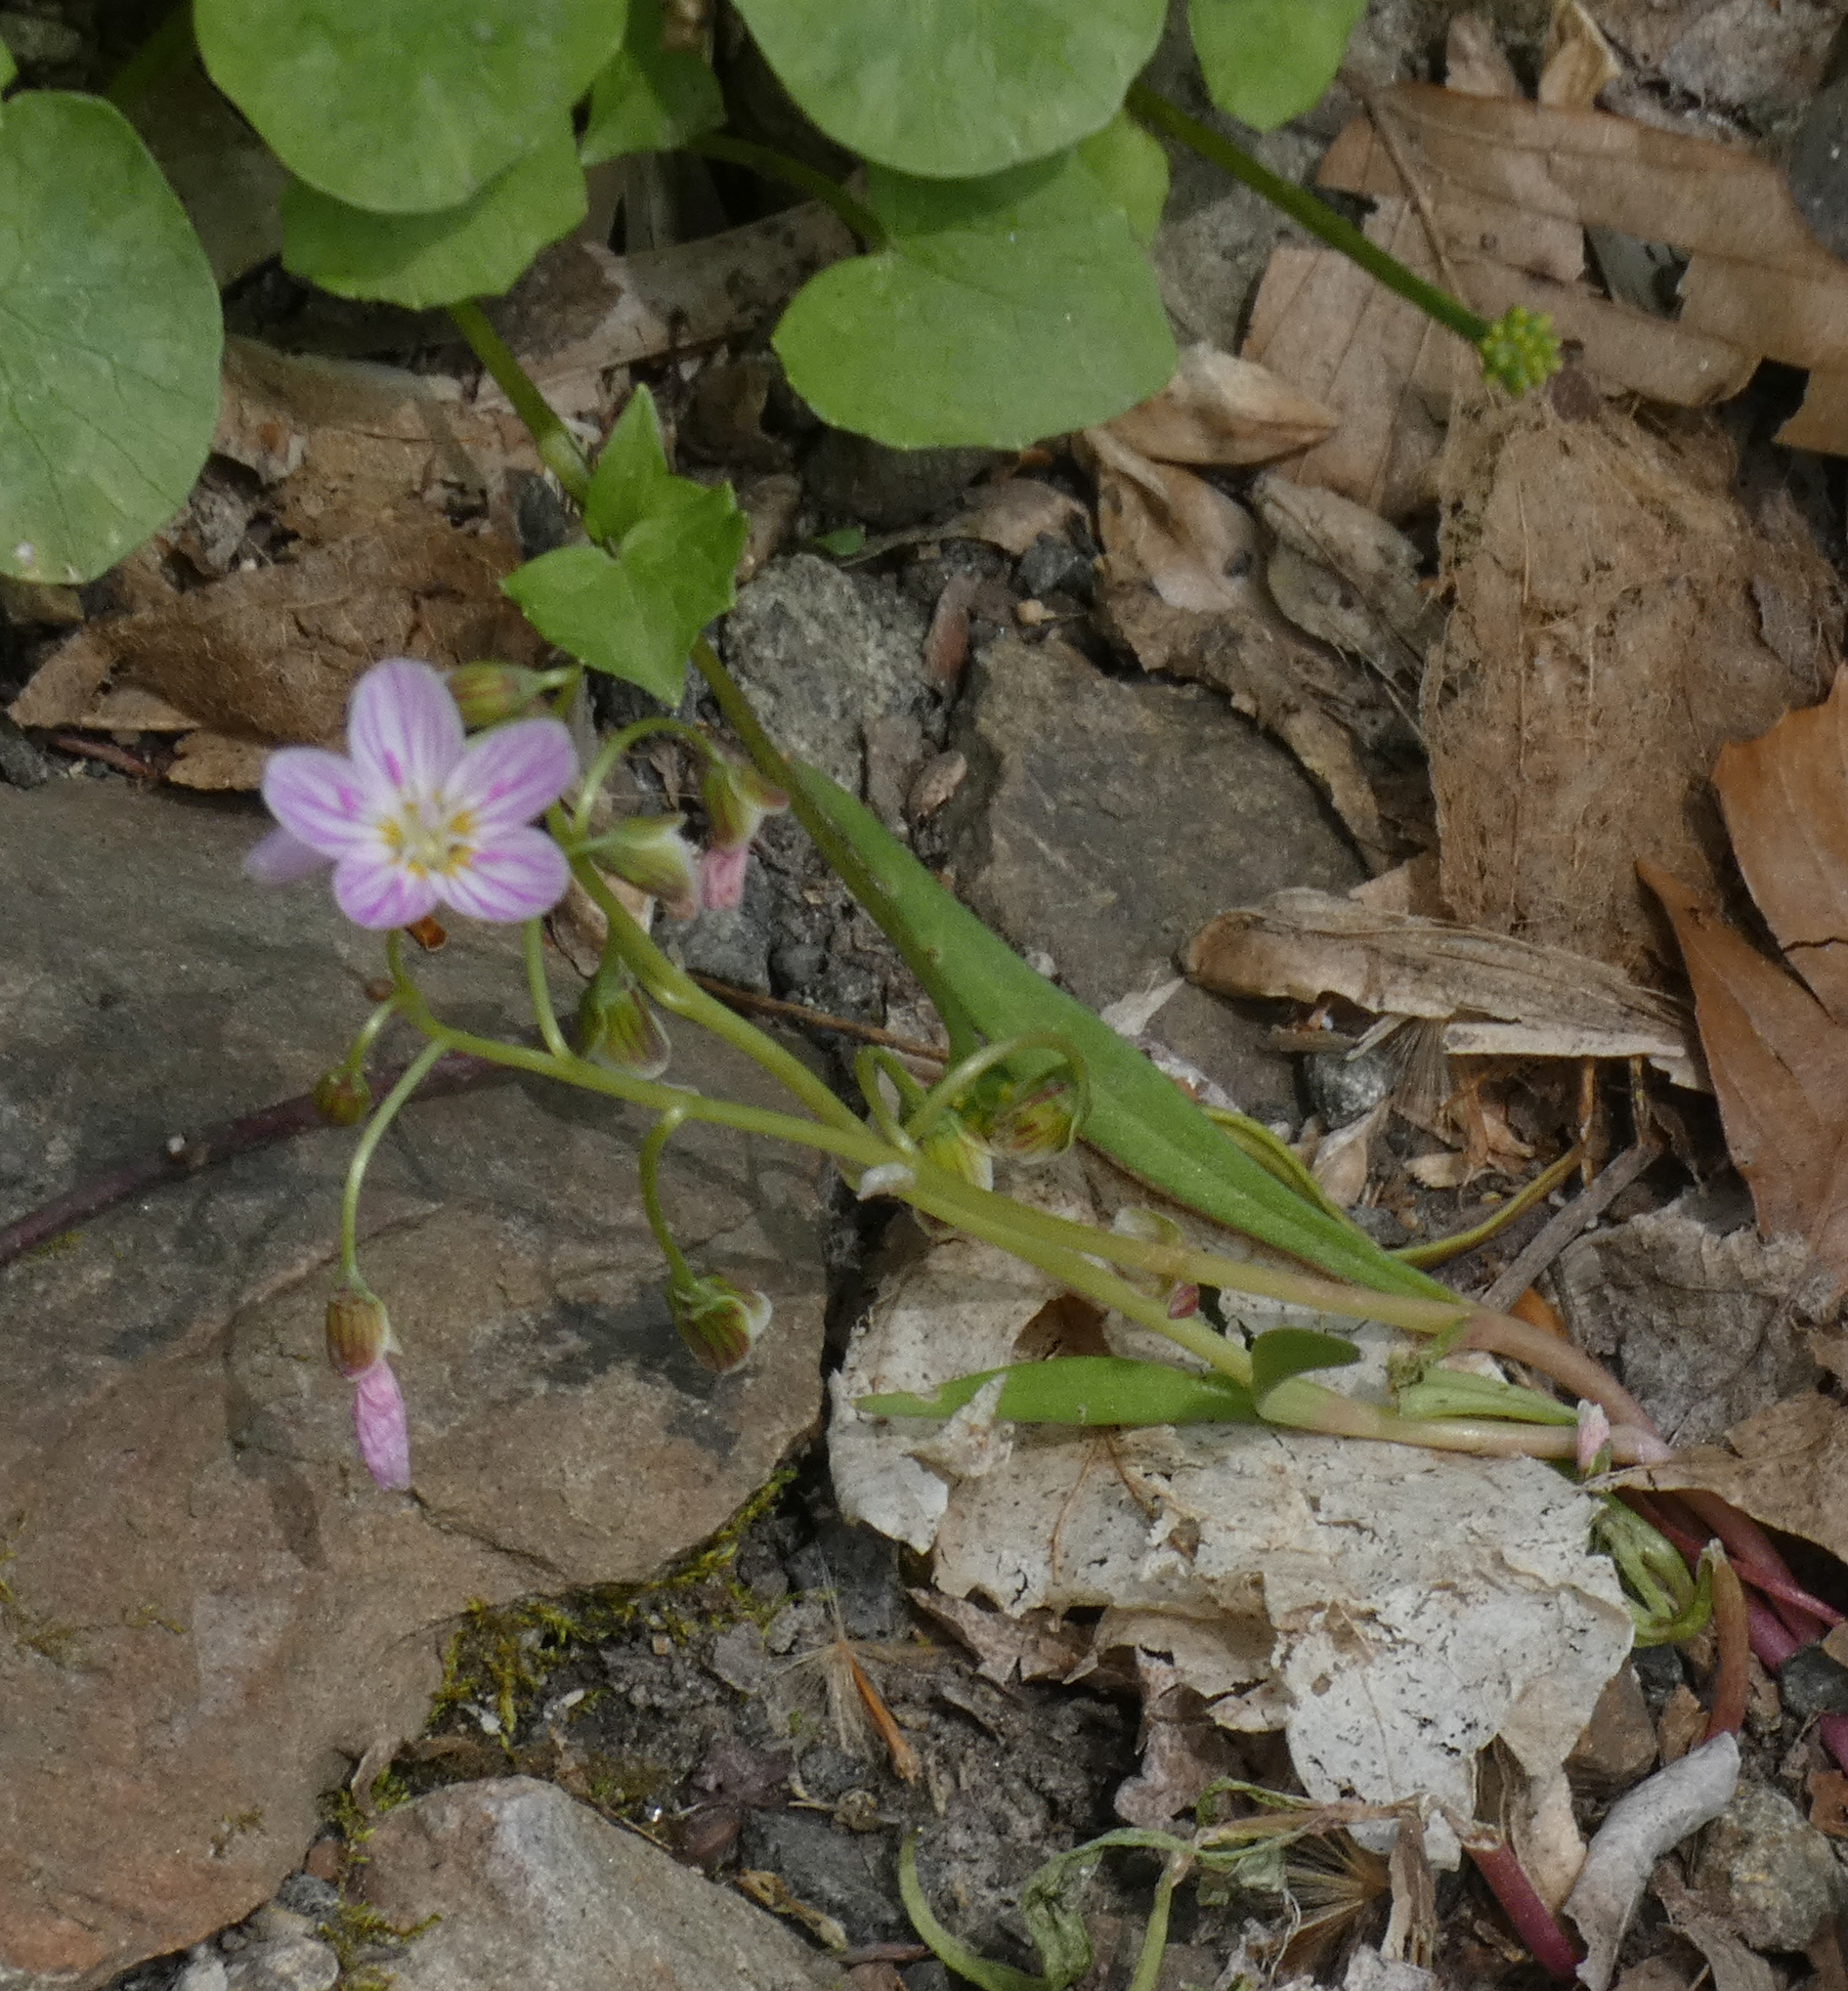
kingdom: Plantae
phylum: Tracheophyta
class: Magnoliopsida
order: Caryophyllales
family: Montiaceae
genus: Claytonia
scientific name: Claytonia virginica
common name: Virginia springbeauty
